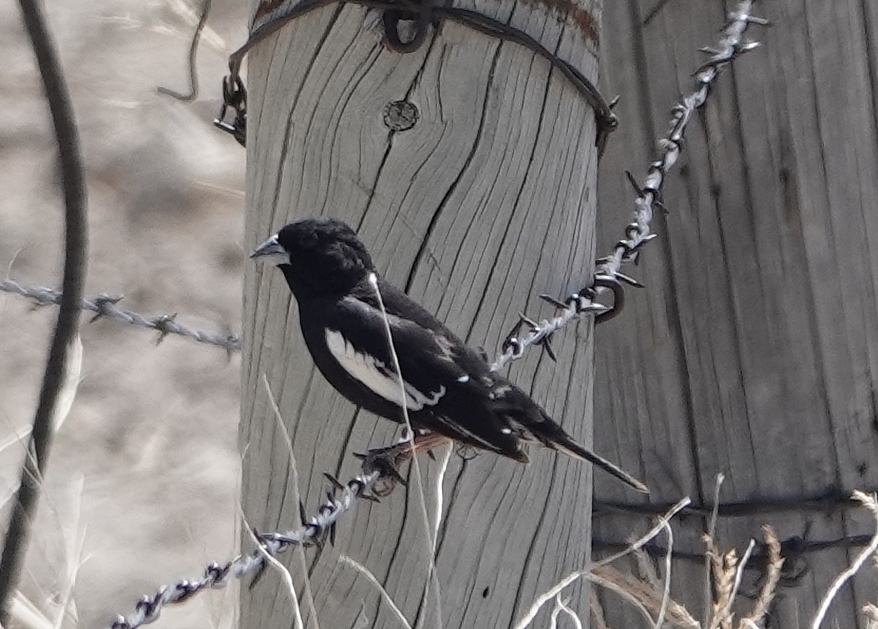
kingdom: Animalia
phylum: Chordata
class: Aves
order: Passeriformes
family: Passerellidae
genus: Calamospiza
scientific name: Calamospiza melanocorys
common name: Lark bunting
